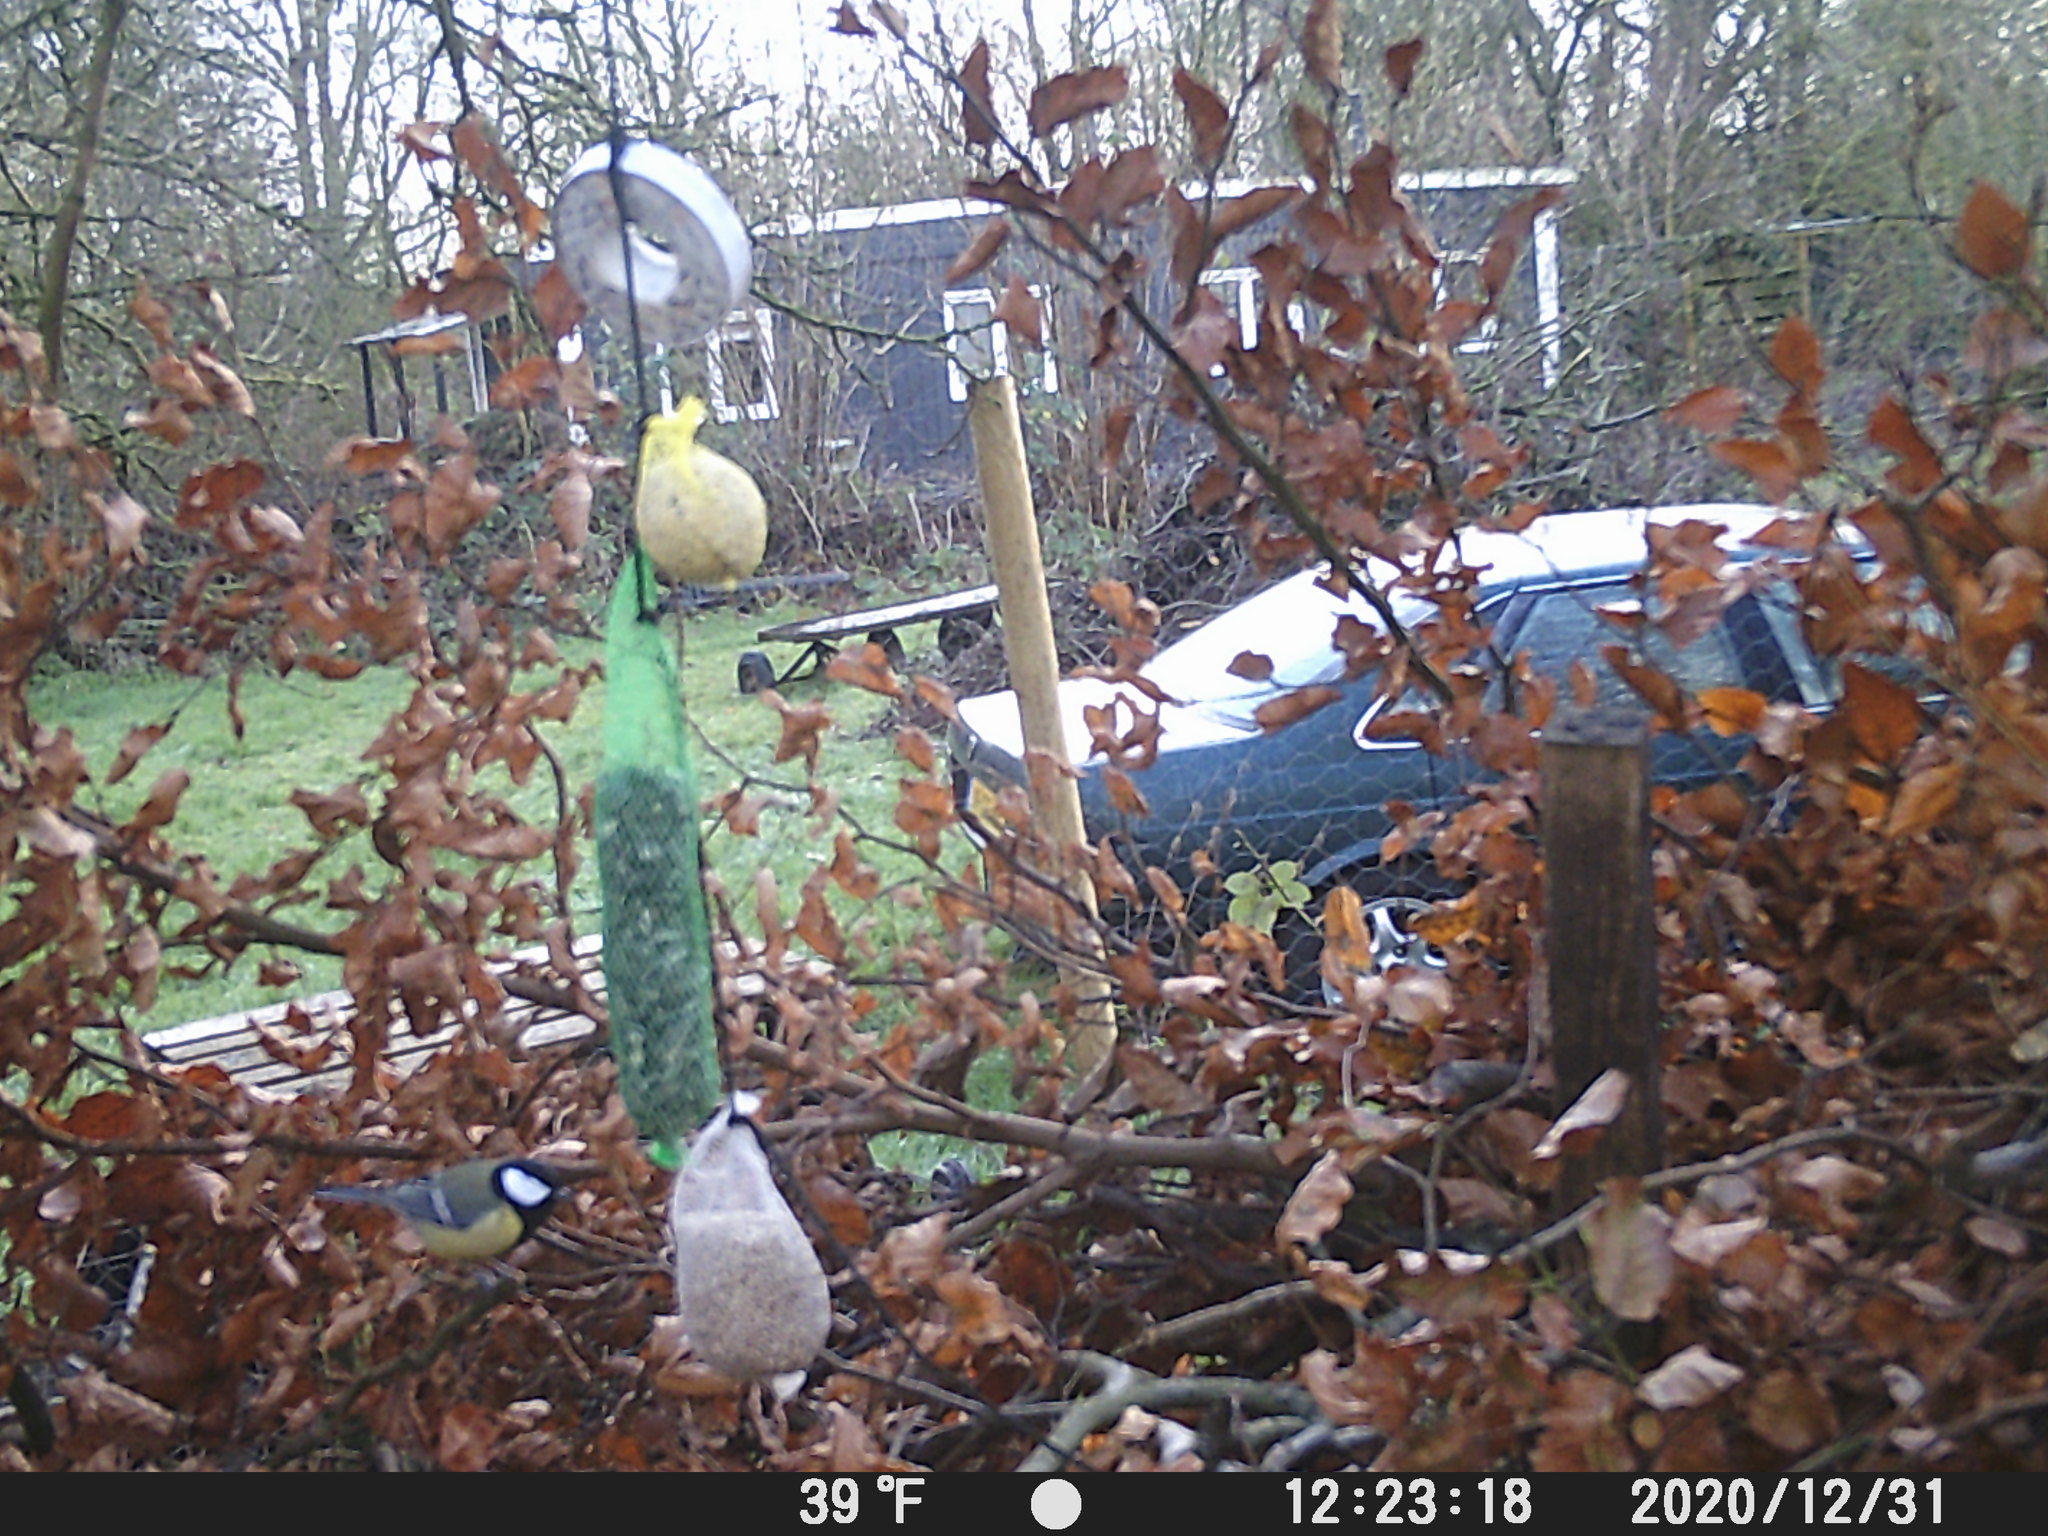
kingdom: Animalia
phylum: Chordata
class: Aves
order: Passeriformes
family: Paridae
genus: Parus
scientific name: Parus major
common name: Great tit
